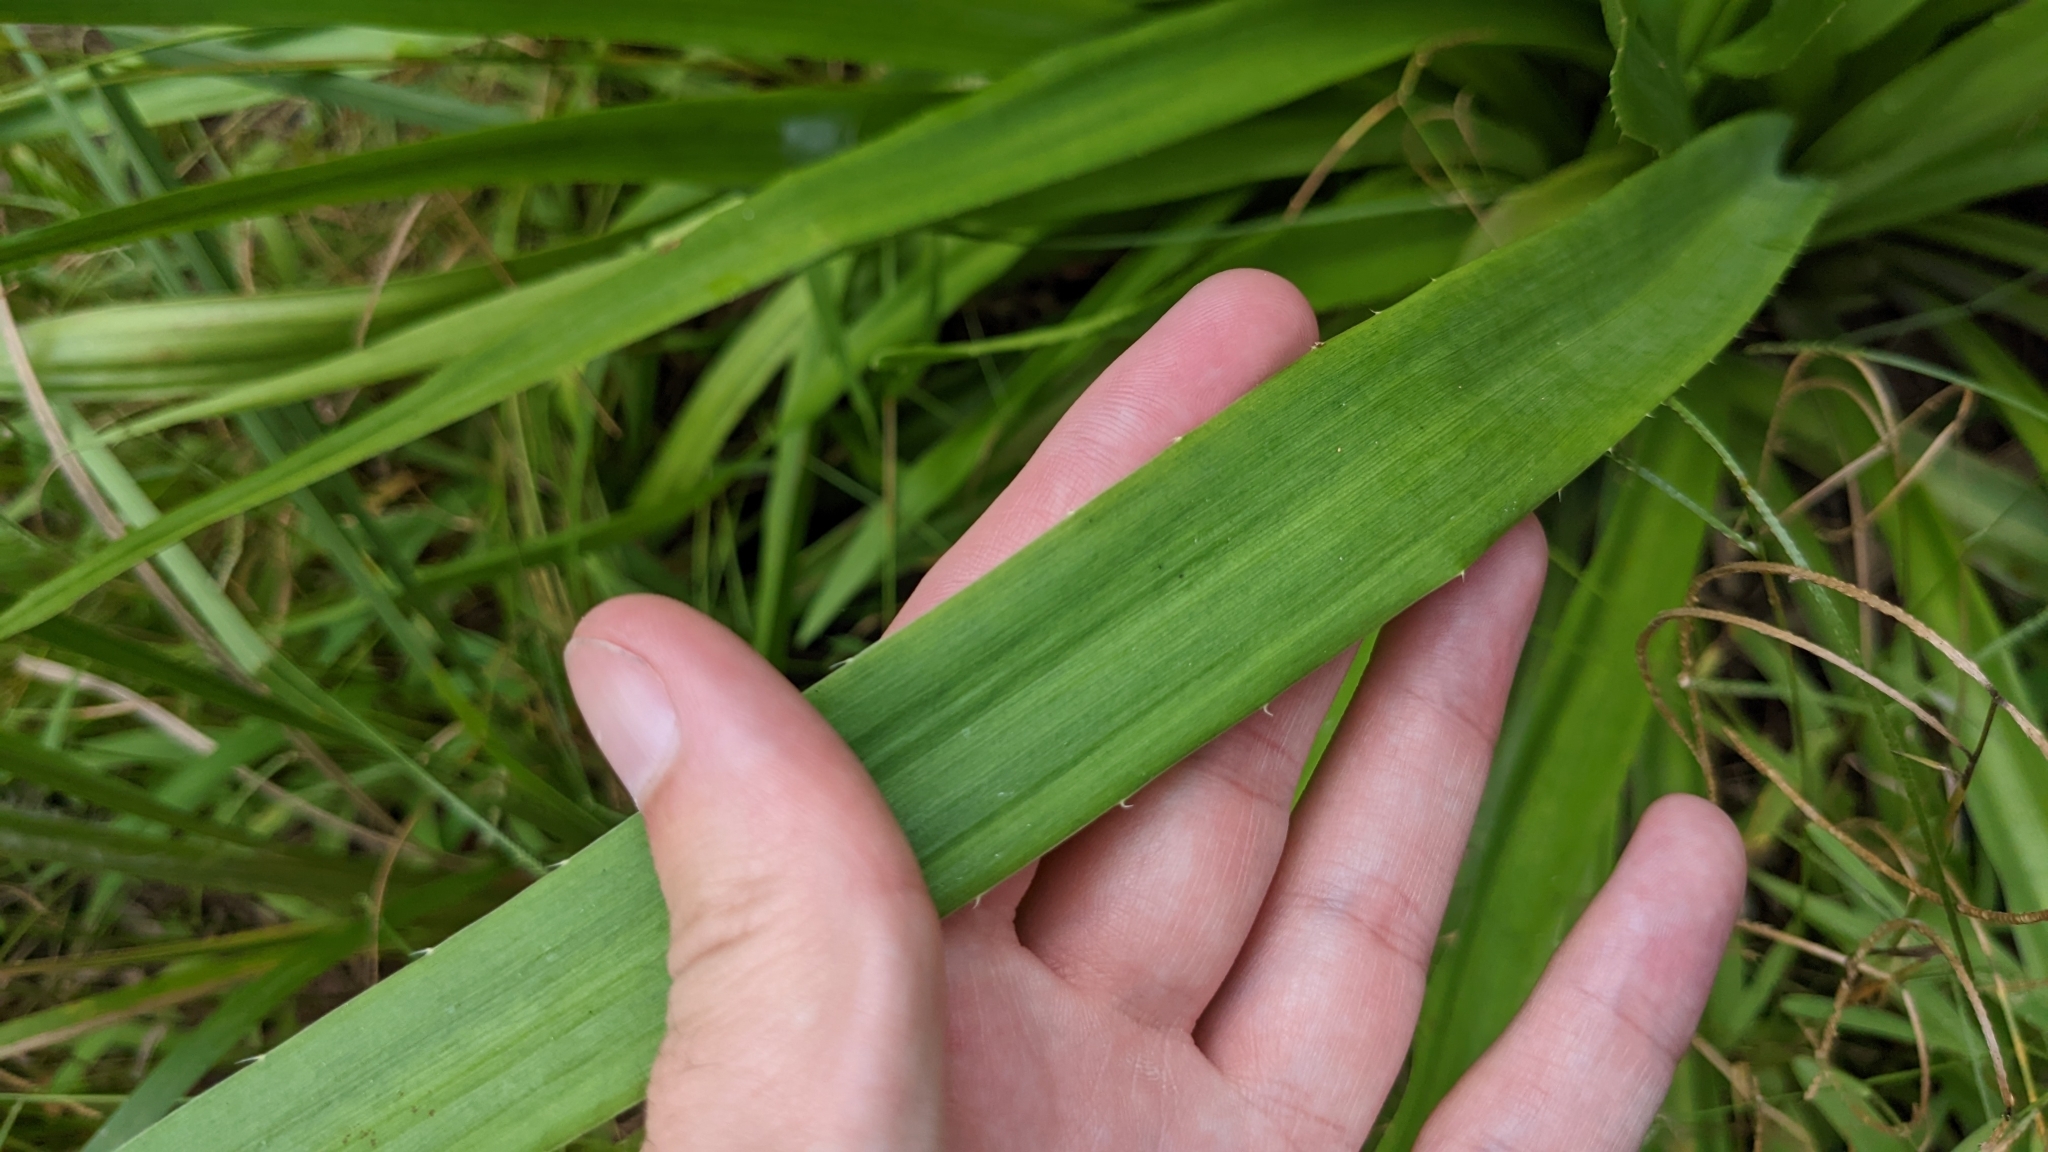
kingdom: Plantae
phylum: Tracheophyta
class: Magnoliopsida
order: Apiales
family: Apiaceae
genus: Eryngium
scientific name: Eryngium yuccifolium
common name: Button eryngo
